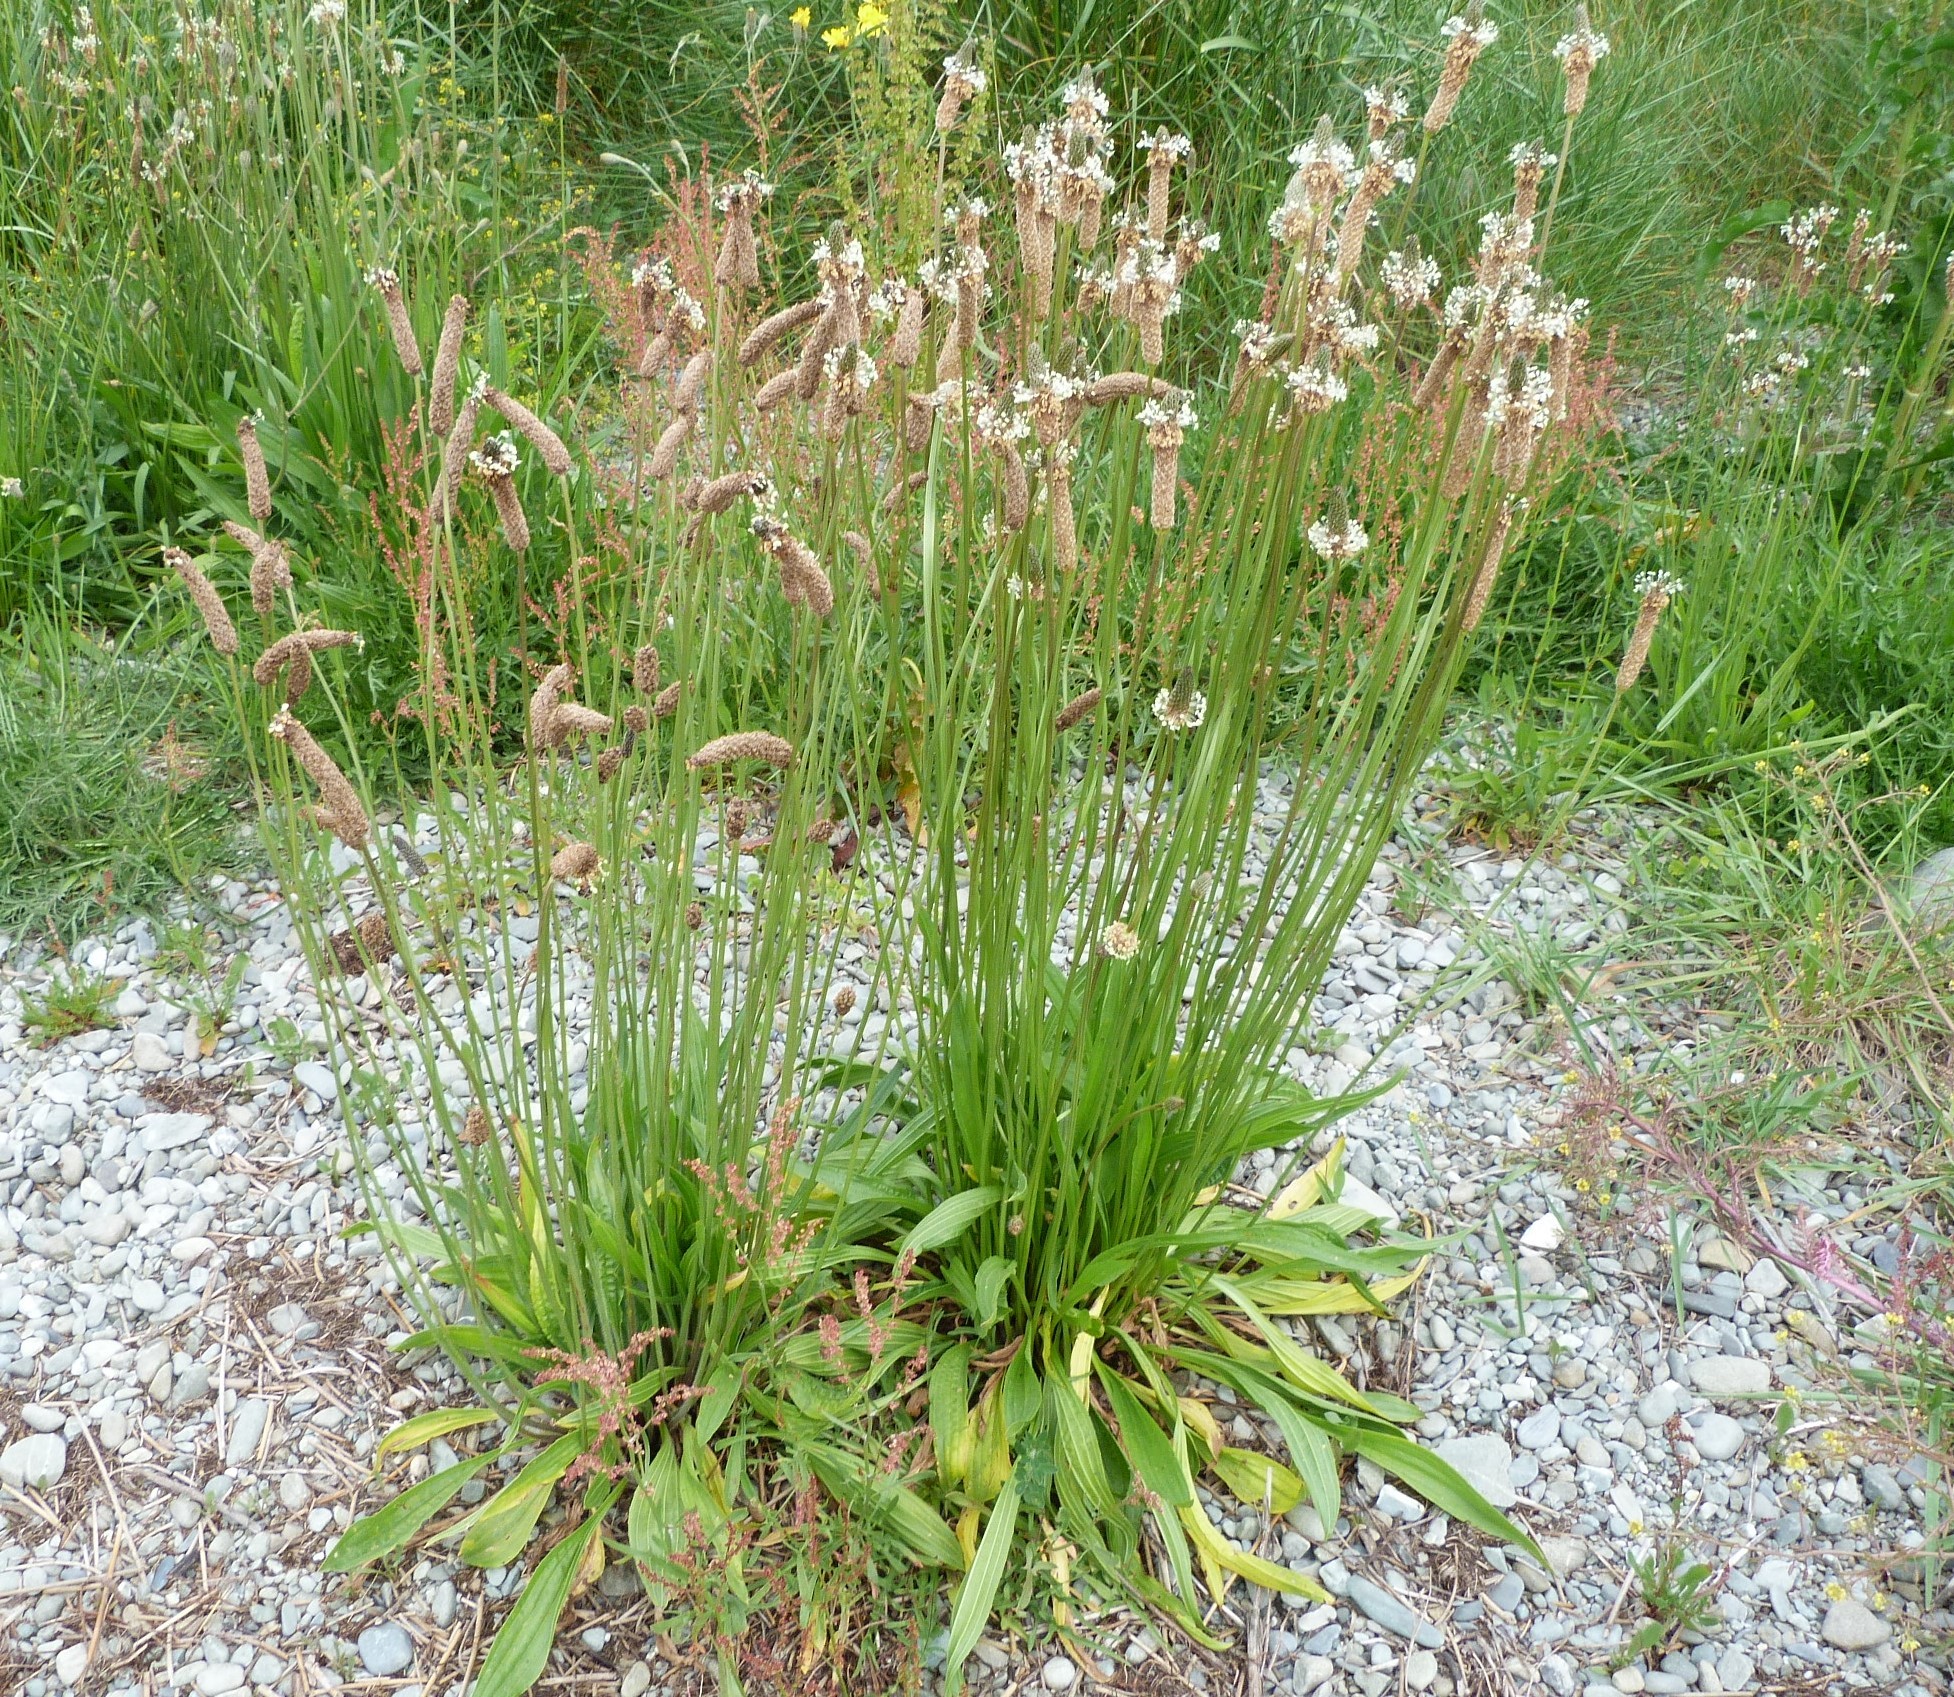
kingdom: Plantae
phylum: Tracheophyta
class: Magnoliopsida
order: Lamiales
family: Plantaginaceae
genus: Plantago
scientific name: Plantago lanceolata
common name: Ribwort plantain
